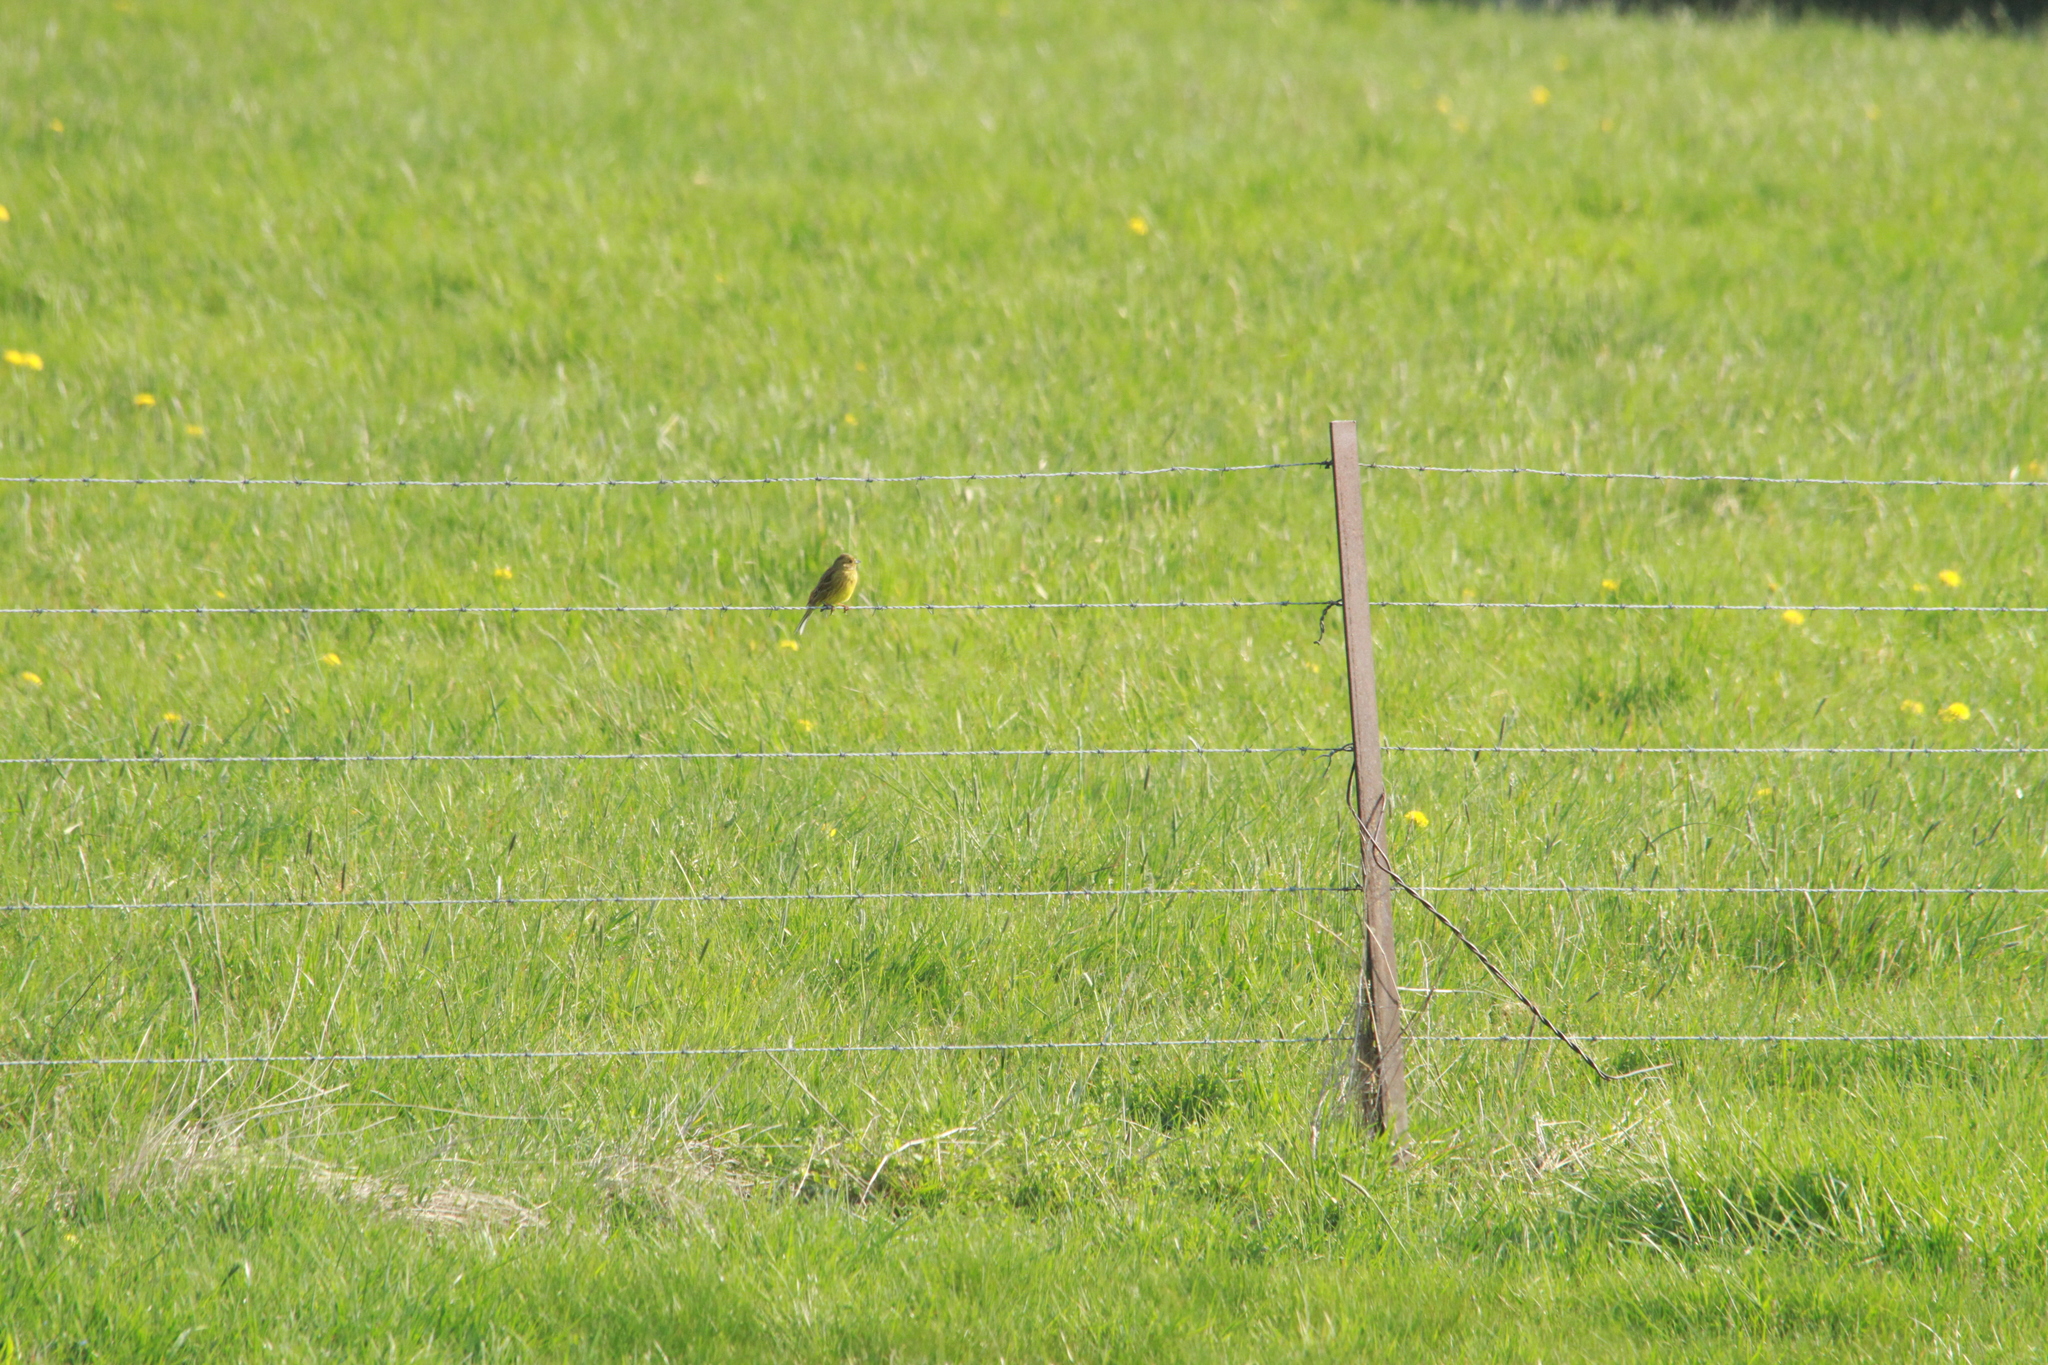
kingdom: Animalia
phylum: Chordata
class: Aves
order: Passeriformes
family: Emberizidae
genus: Emberiza
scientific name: Emberiza citrinella
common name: Yellowhammer
